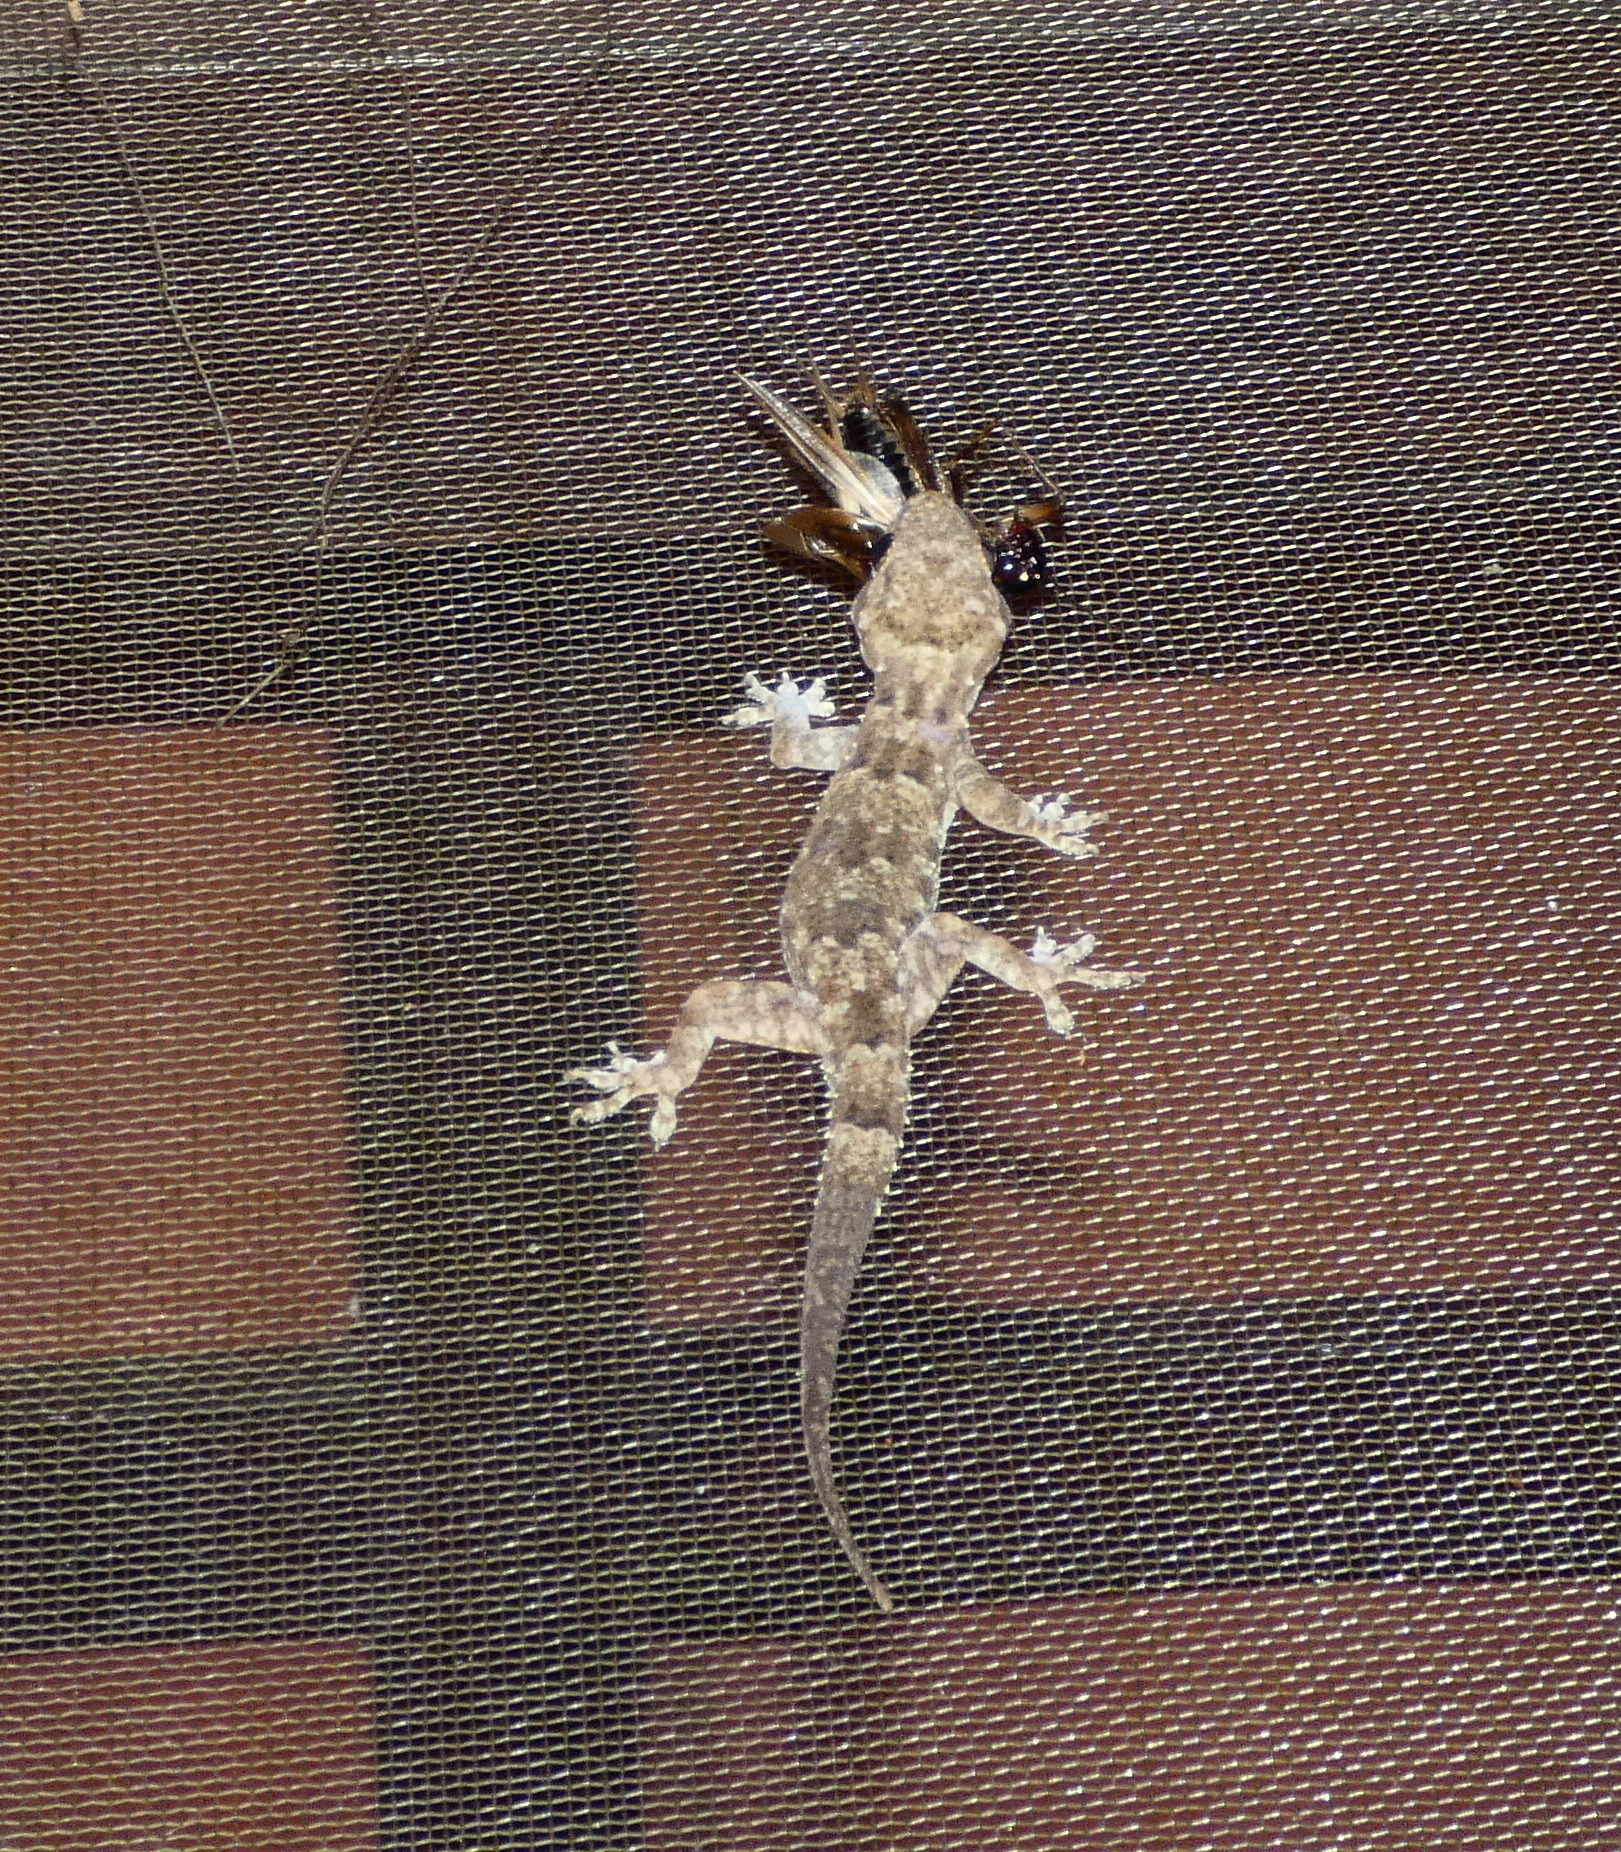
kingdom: Animalia
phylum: Chordata
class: Squamata
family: Gekkonidae
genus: Hemidactylus
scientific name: Hemidactylus mabouia
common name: House gecko
